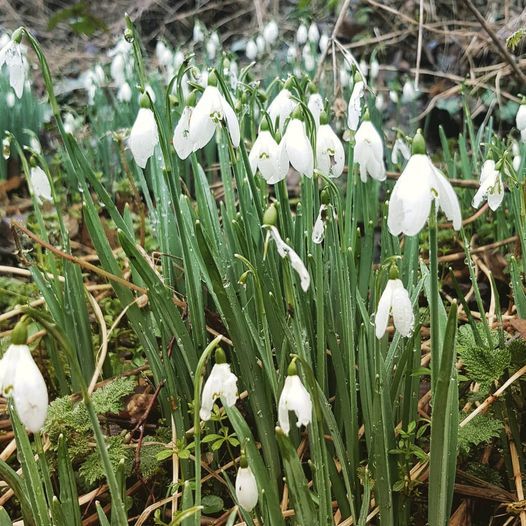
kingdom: Plantae
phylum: Tracheophyta
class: Liliopsida
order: Asparagales
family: Amaryllidaceae
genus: Galanthus
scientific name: Galanthus nivalis
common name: Snowdrop
